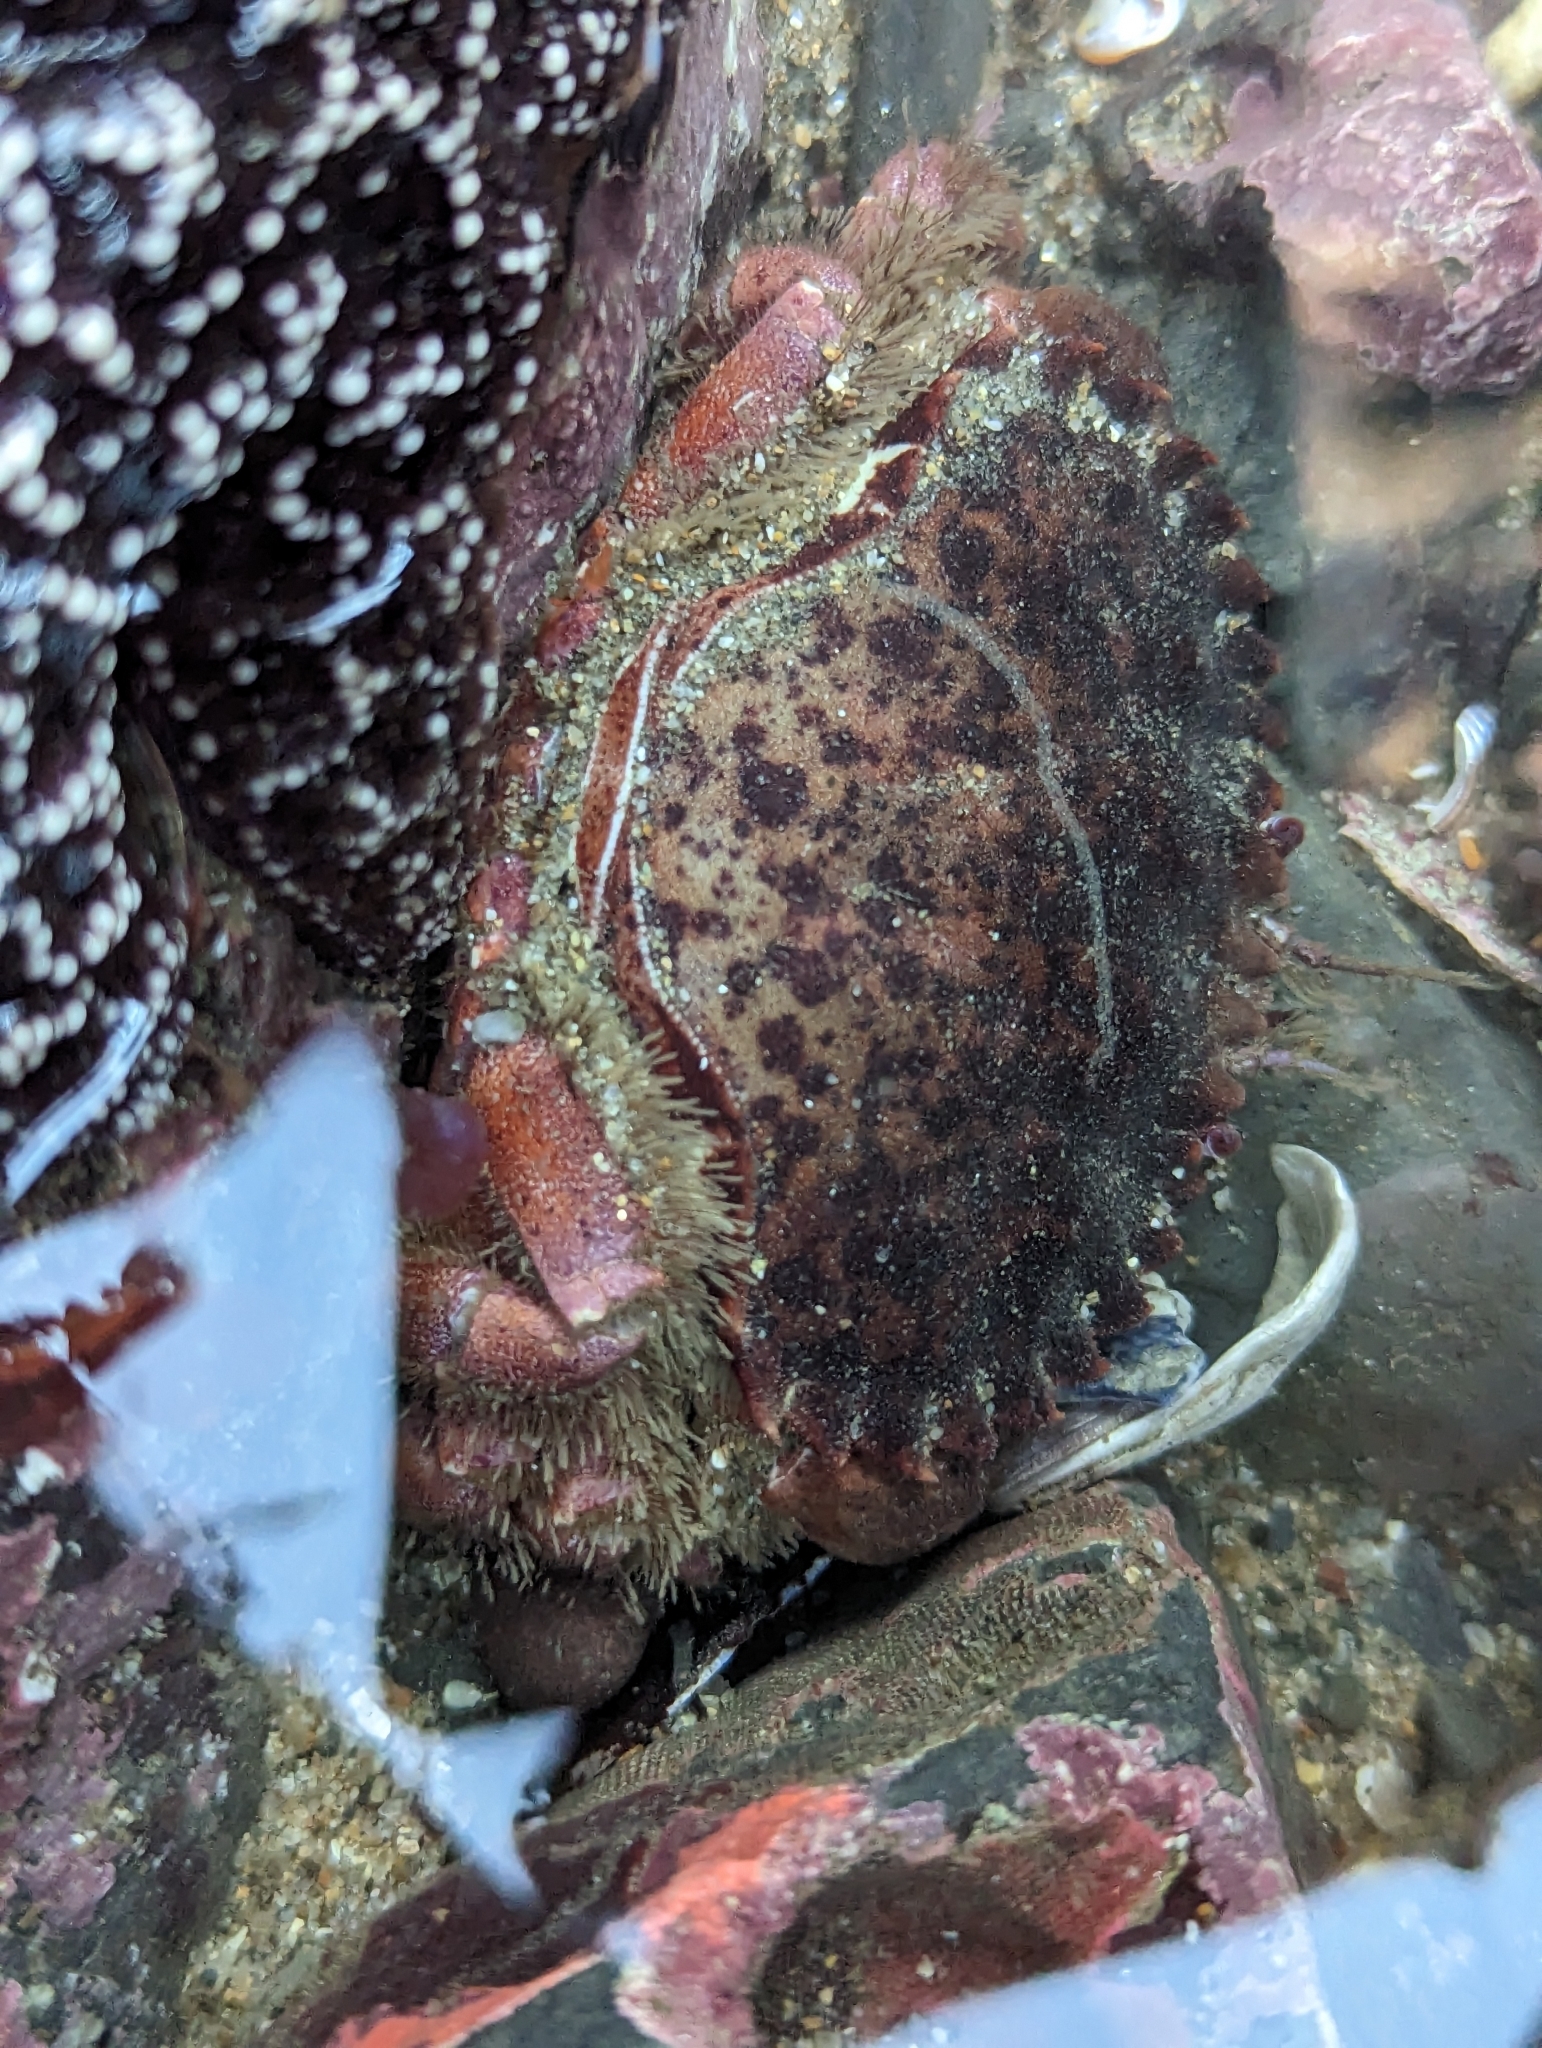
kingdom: Animalia
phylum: Arthropoda
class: Malacostraca
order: Decapoda
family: Cancridae
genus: Romaleon
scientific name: Romaleon antennarium
